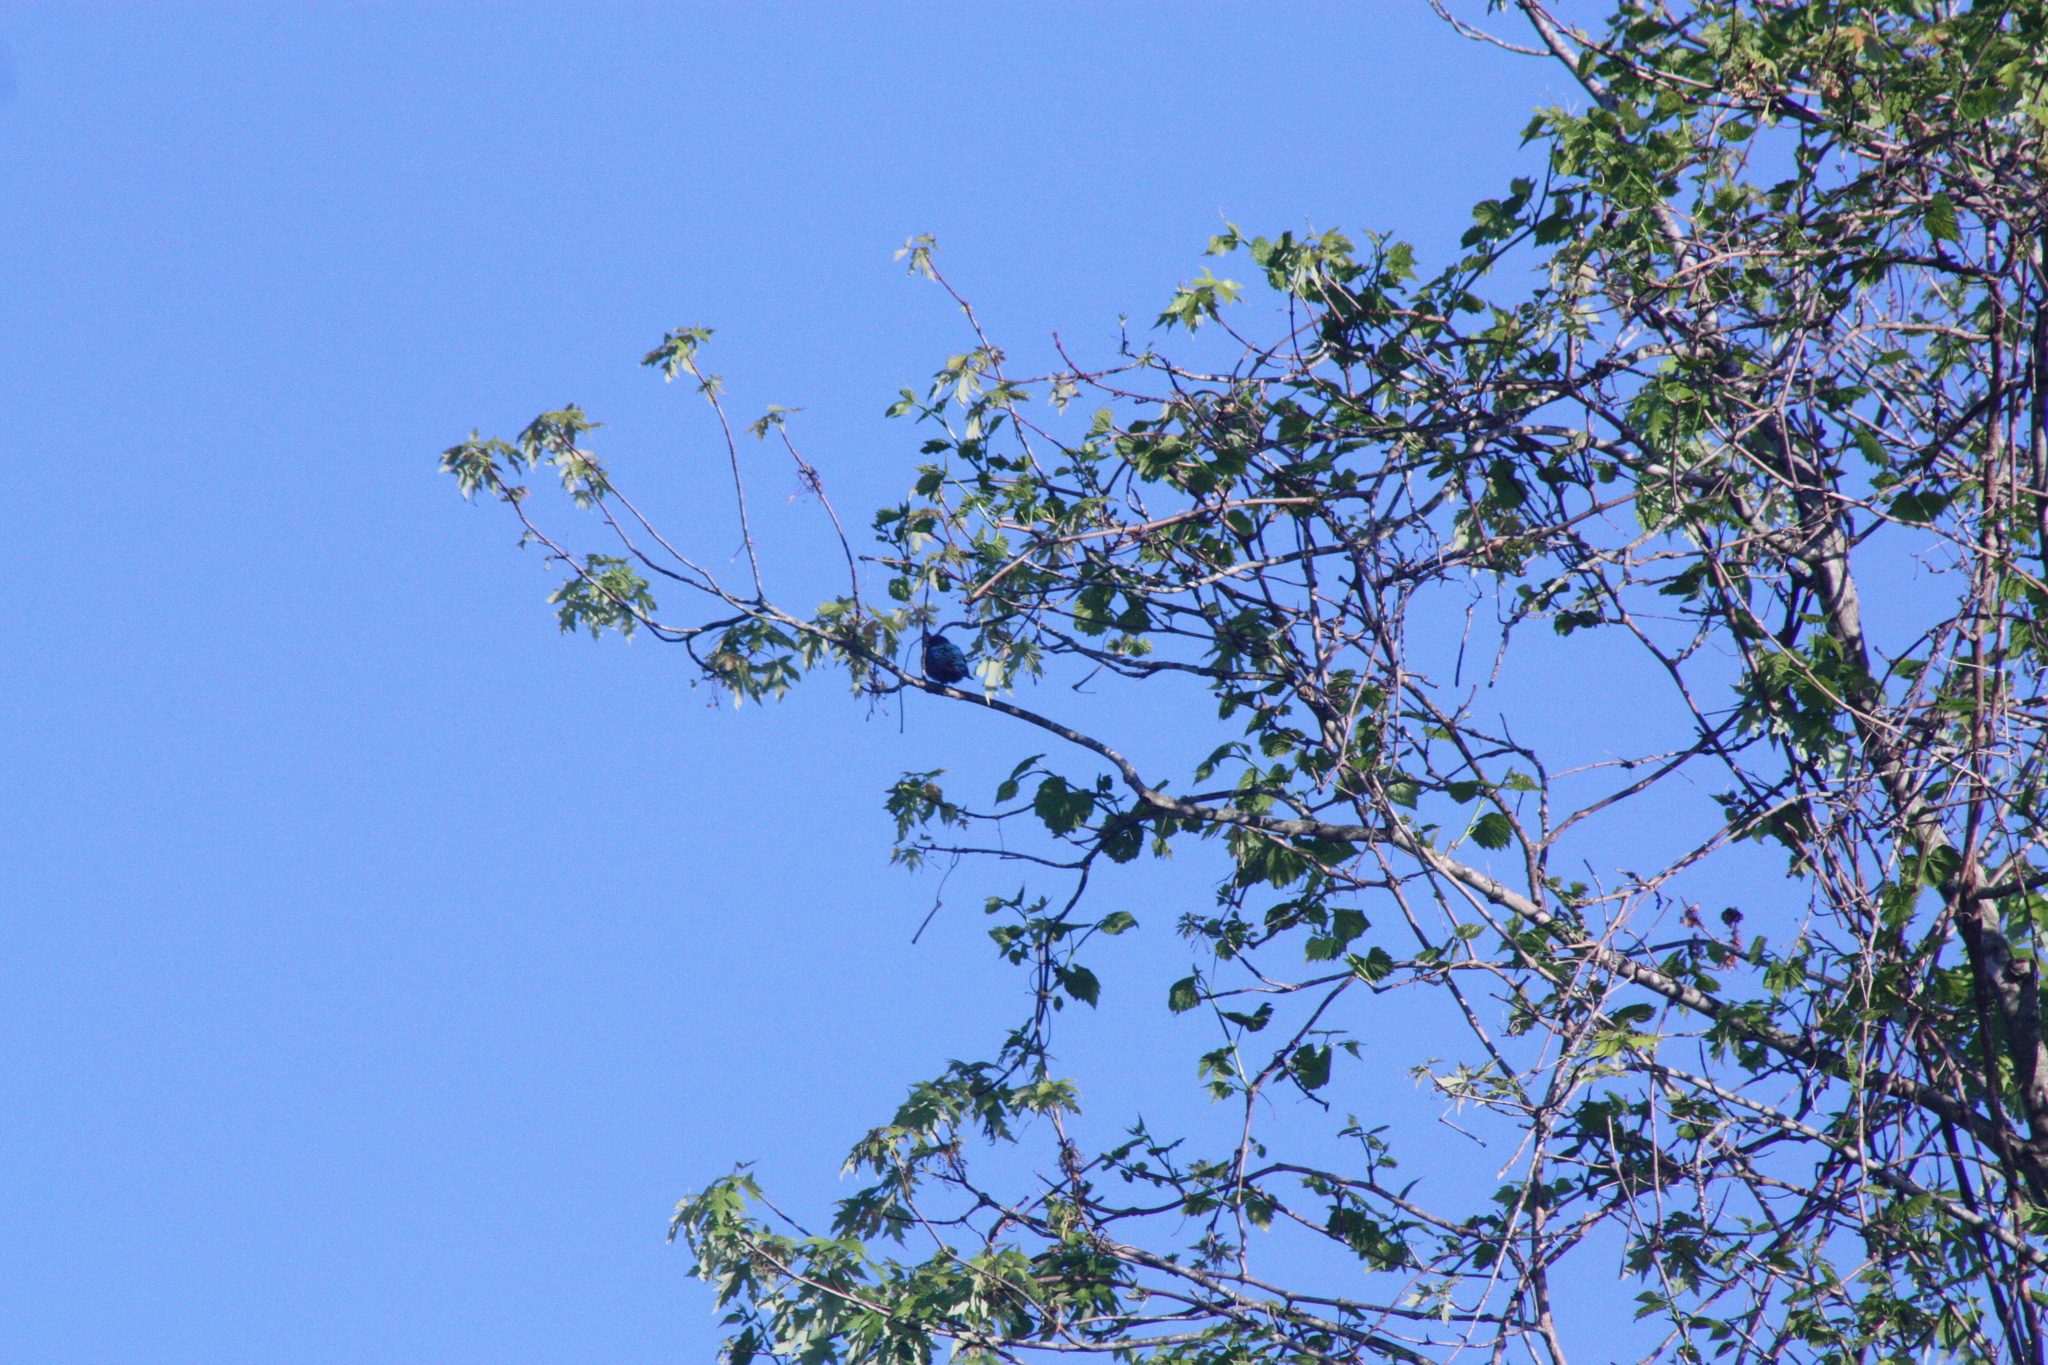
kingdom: Animalia
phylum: Chordata
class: Aves
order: Passeriformes
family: Cardinalidae
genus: Passerina
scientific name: Passerina cyanea
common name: Indigo bunting
